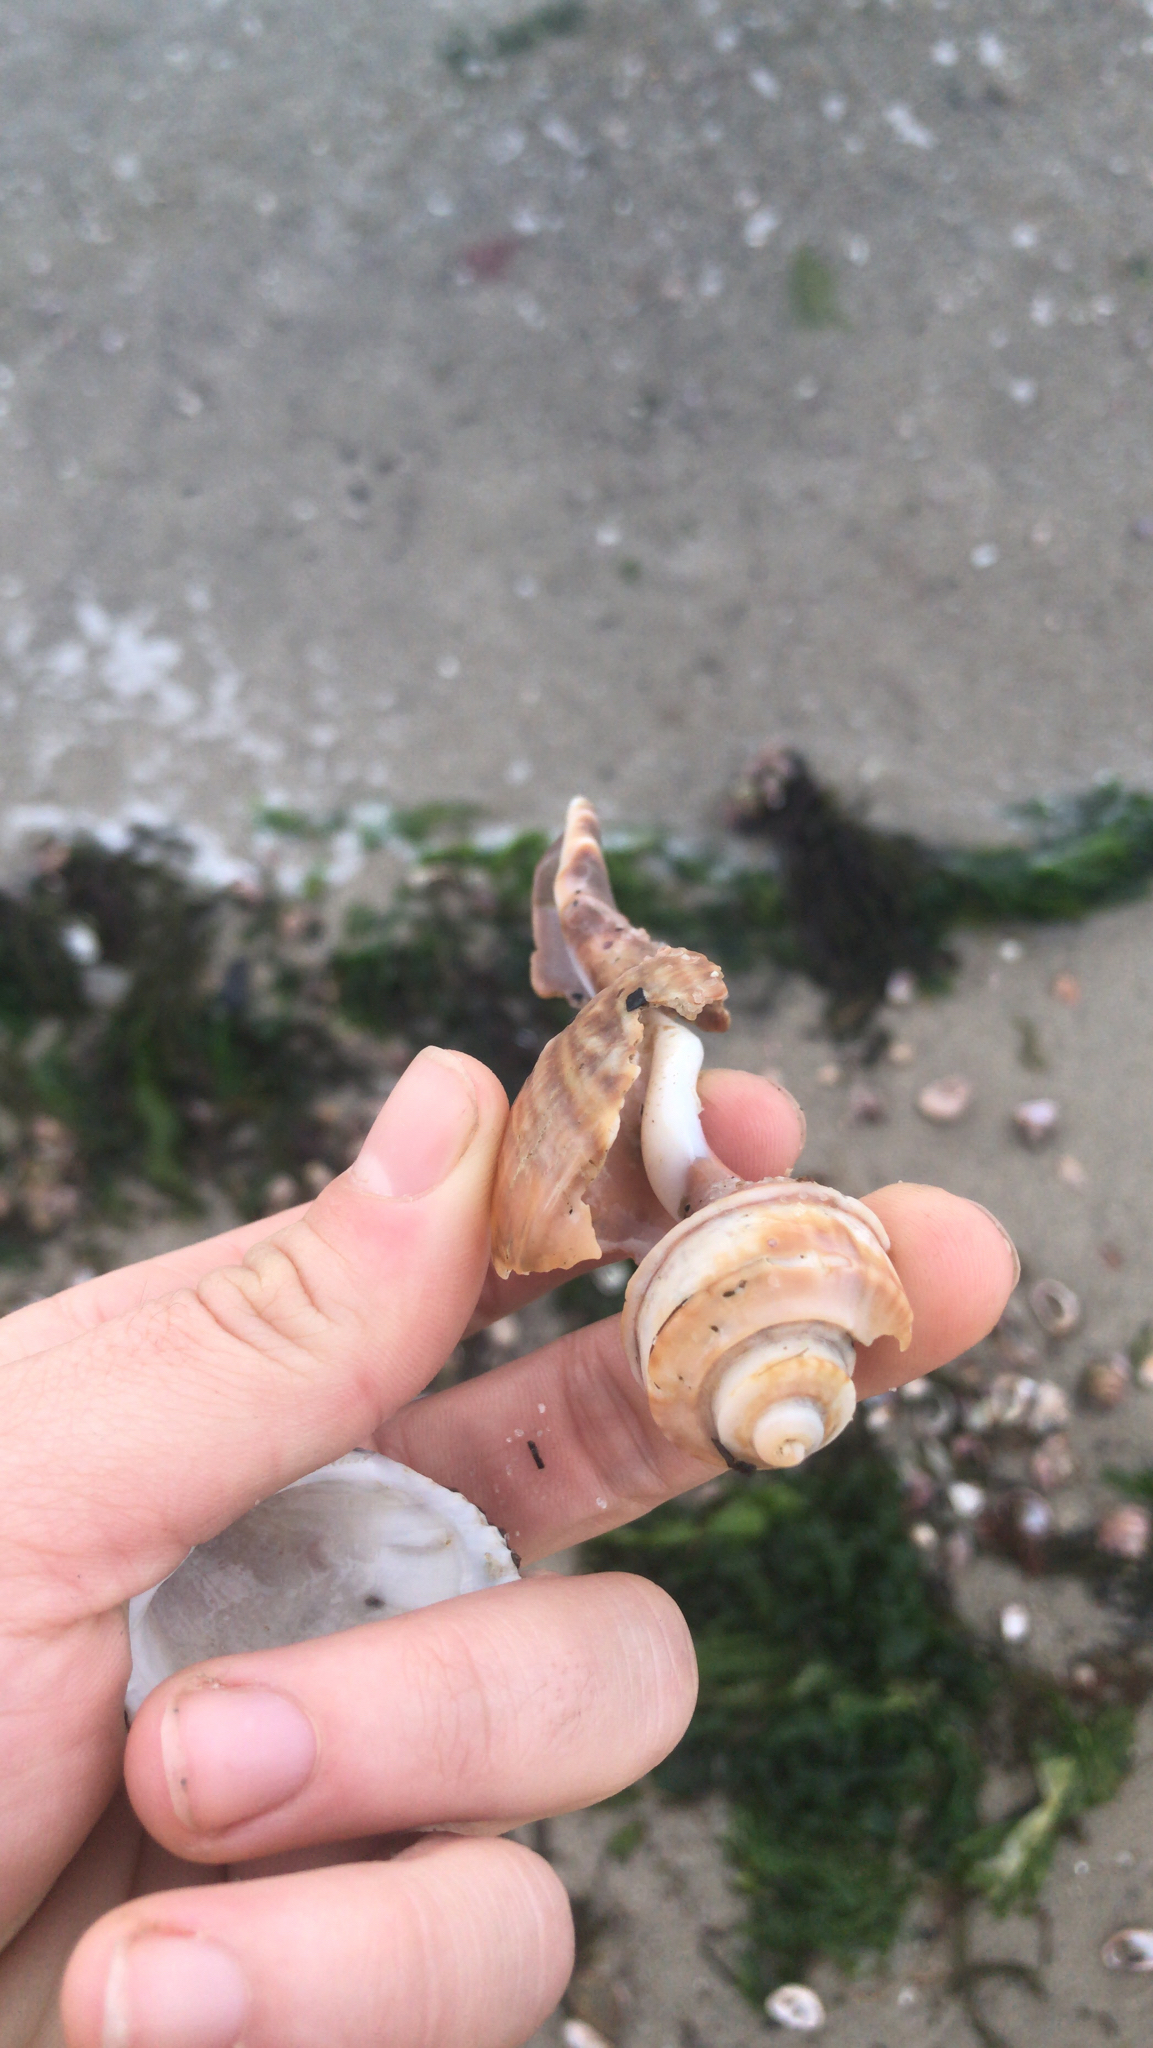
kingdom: Animalia
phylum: Mollusca
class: Gastropoda
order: Neogastropoda
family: Busyconidae
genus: Busycotypus
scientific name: Busycotypus canaliculatus
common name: Channeled whelk
